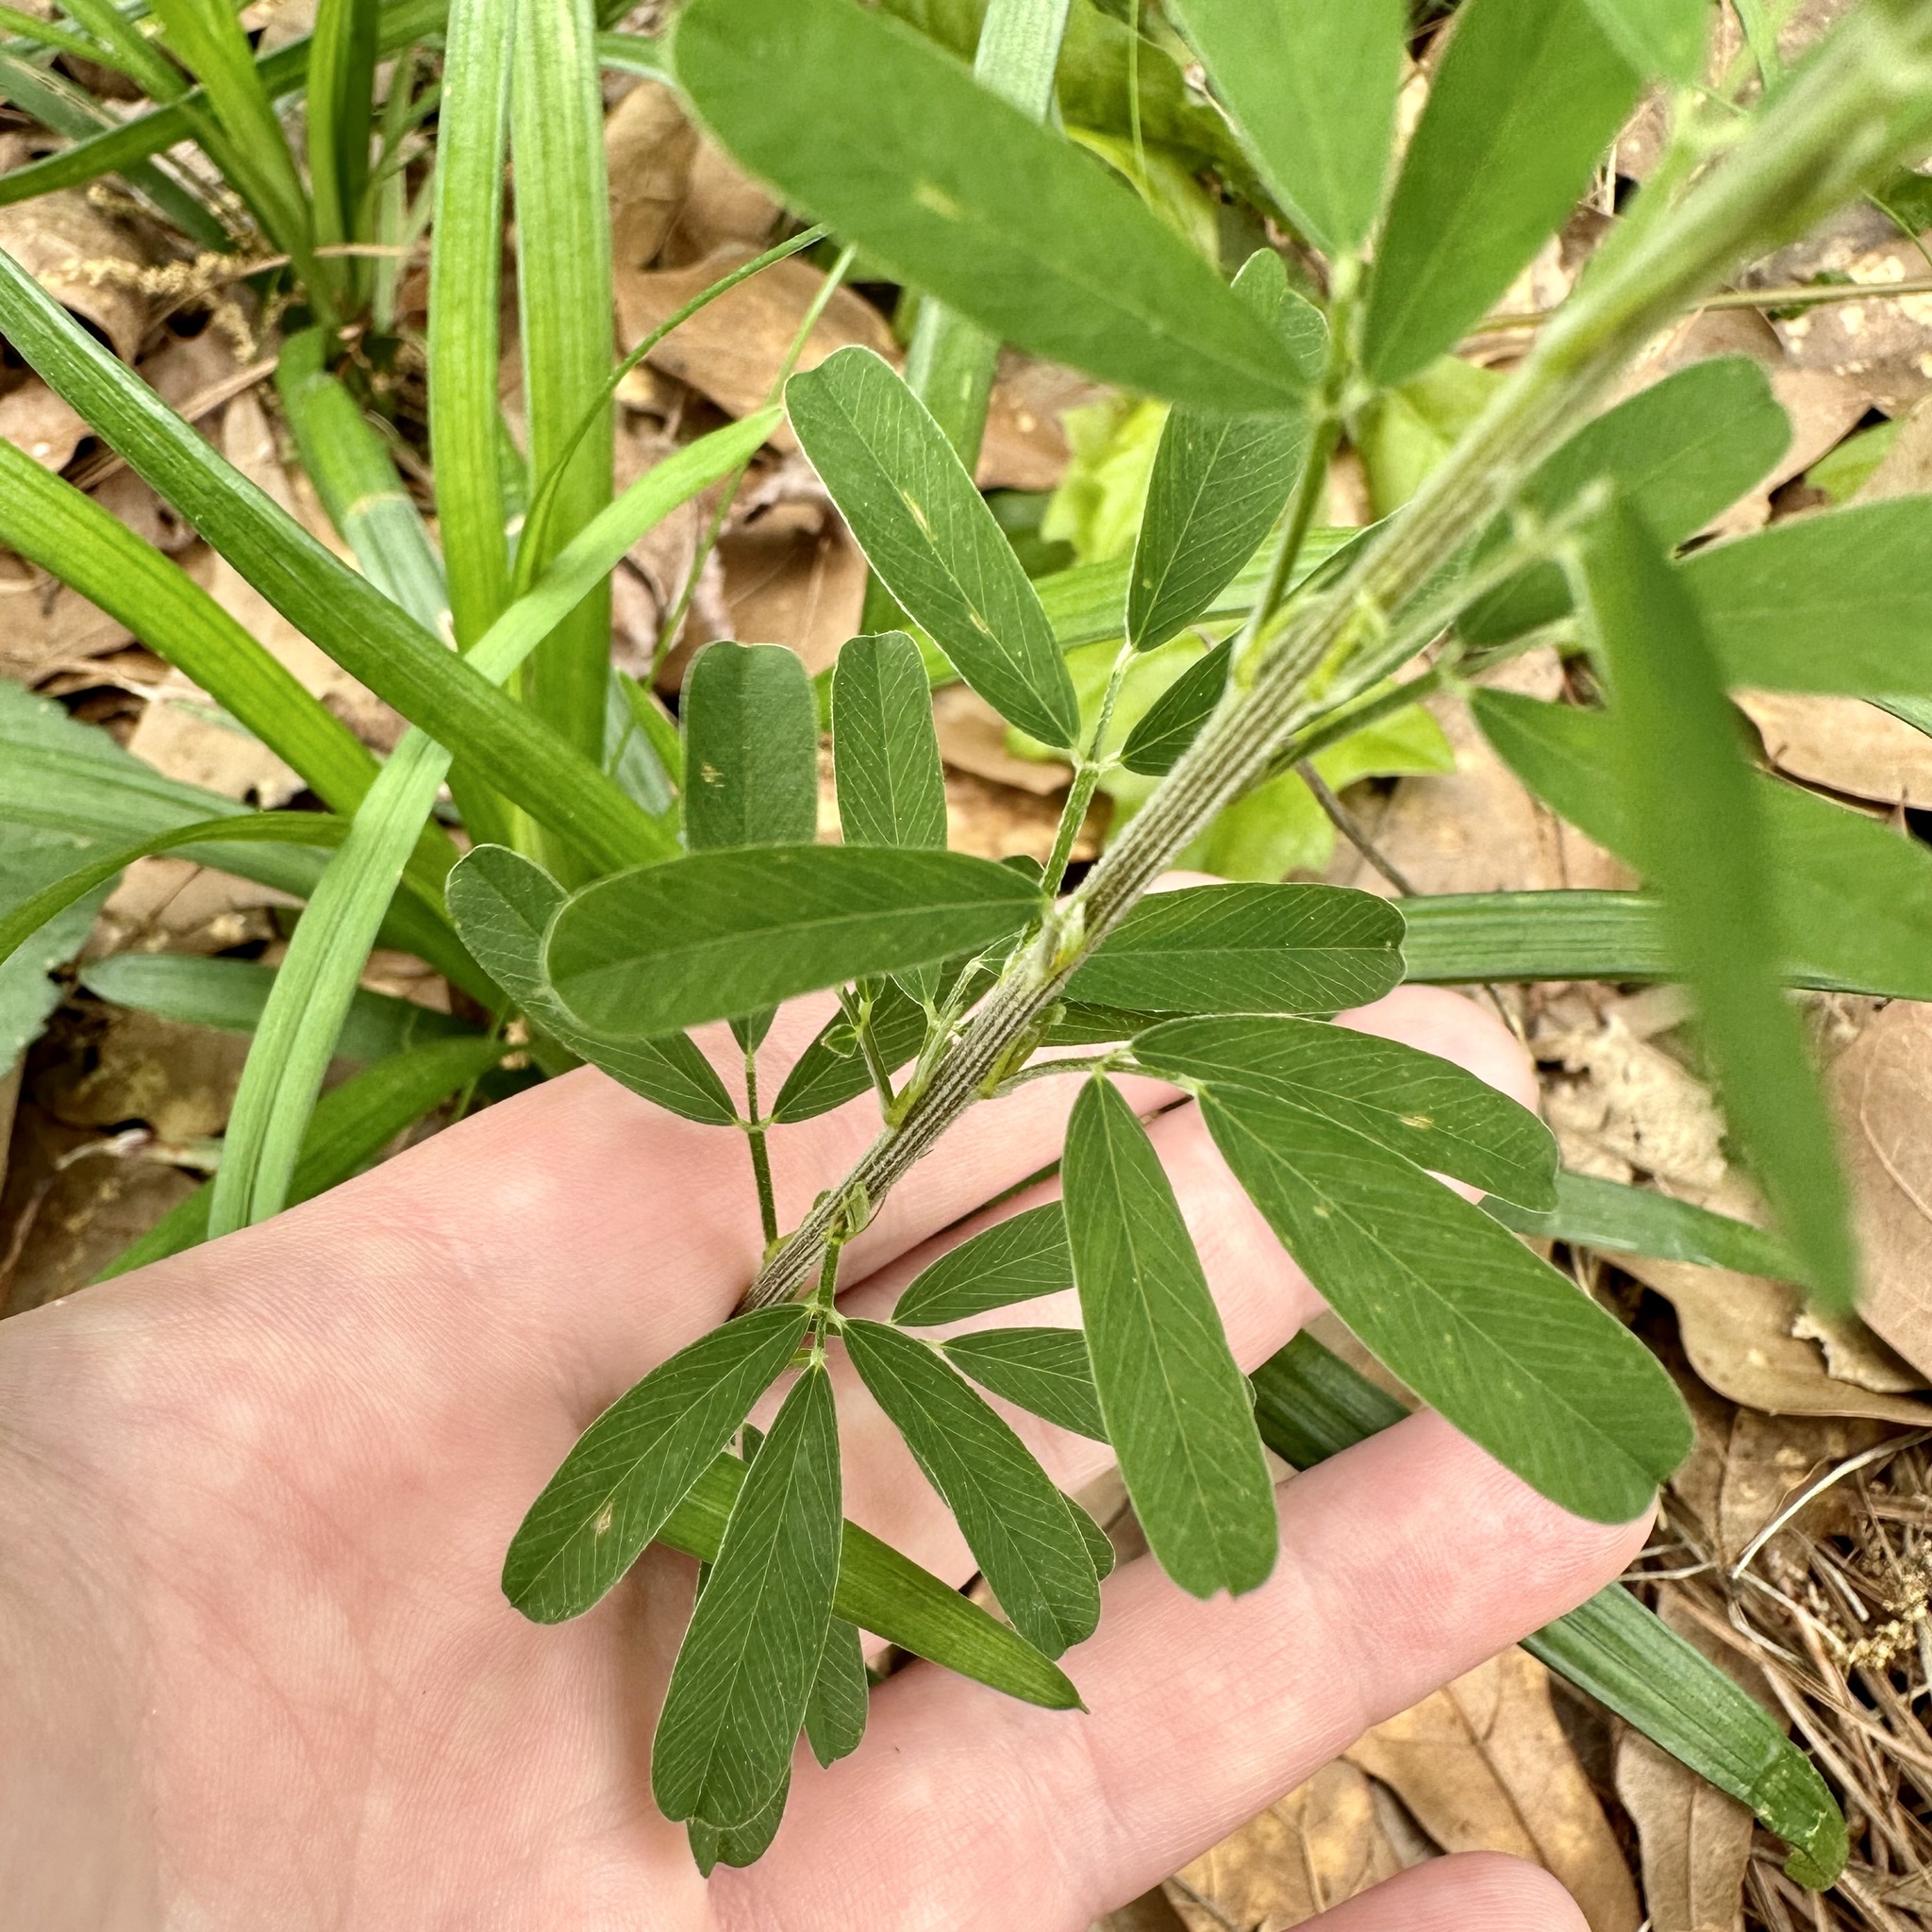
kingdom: Plantae
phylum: Tracheophyta
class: Magnoliopsida
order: Fabales
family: Fabaceae
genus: Lespedeza
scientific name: Lespedeza cuneata
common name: Chinese bush-clover
